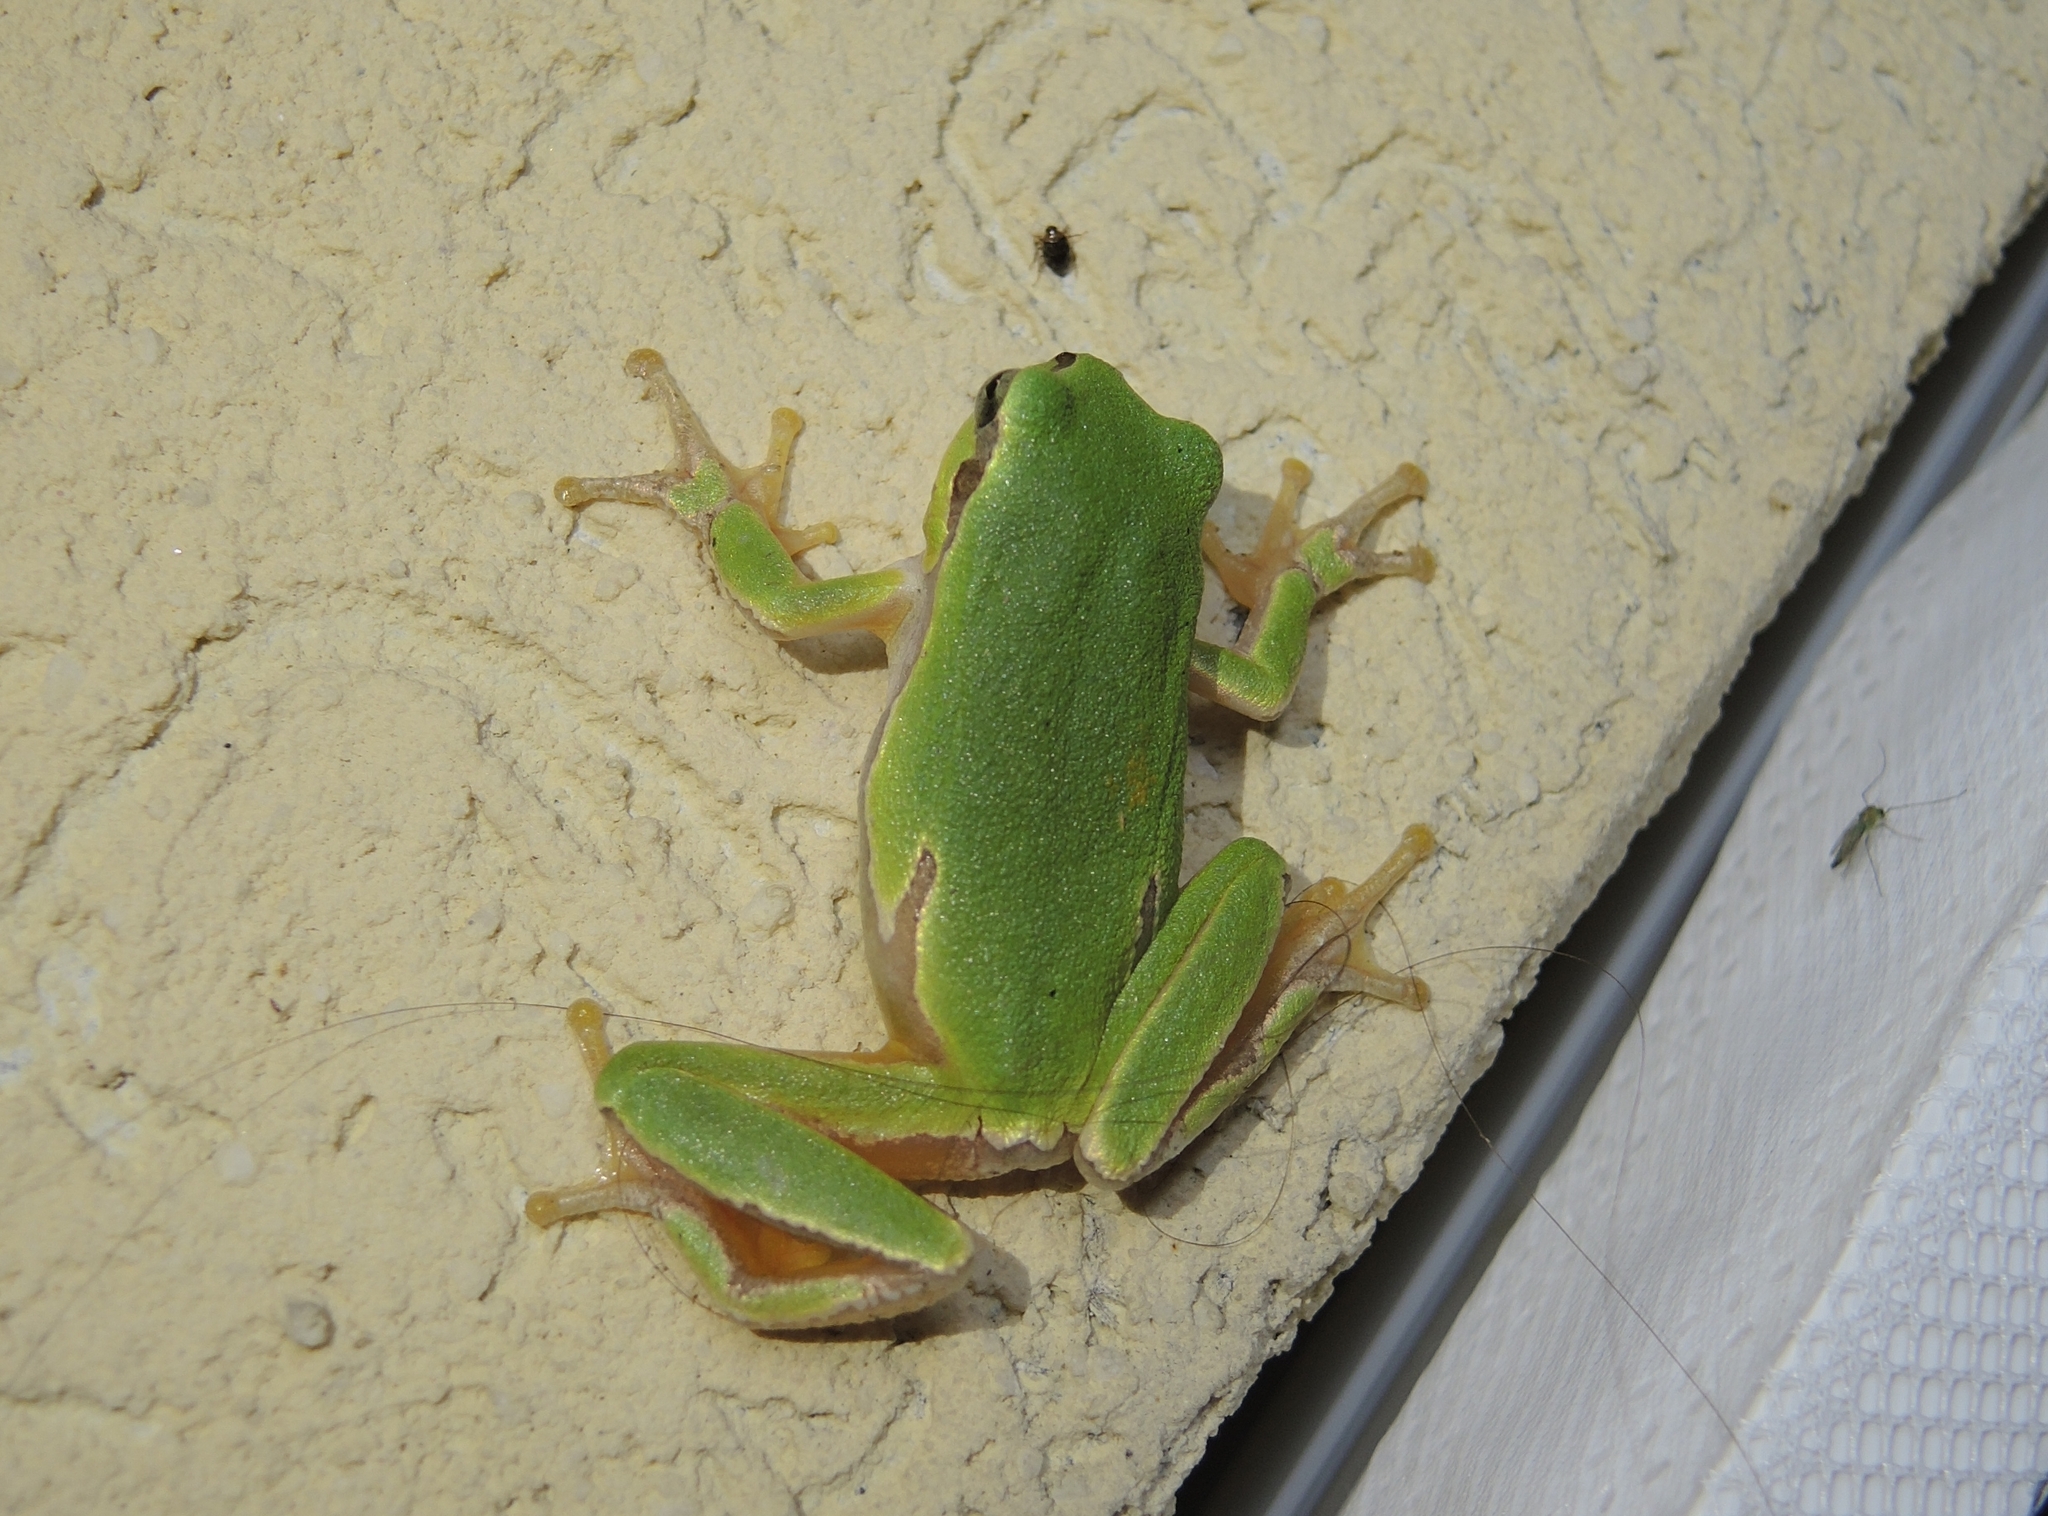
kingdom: Animalia
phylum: Chordata
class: Amphibia
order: Anura
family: Hylidae
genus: Hyla
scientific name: Hyla orientalis
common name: Caucasian treefrog
